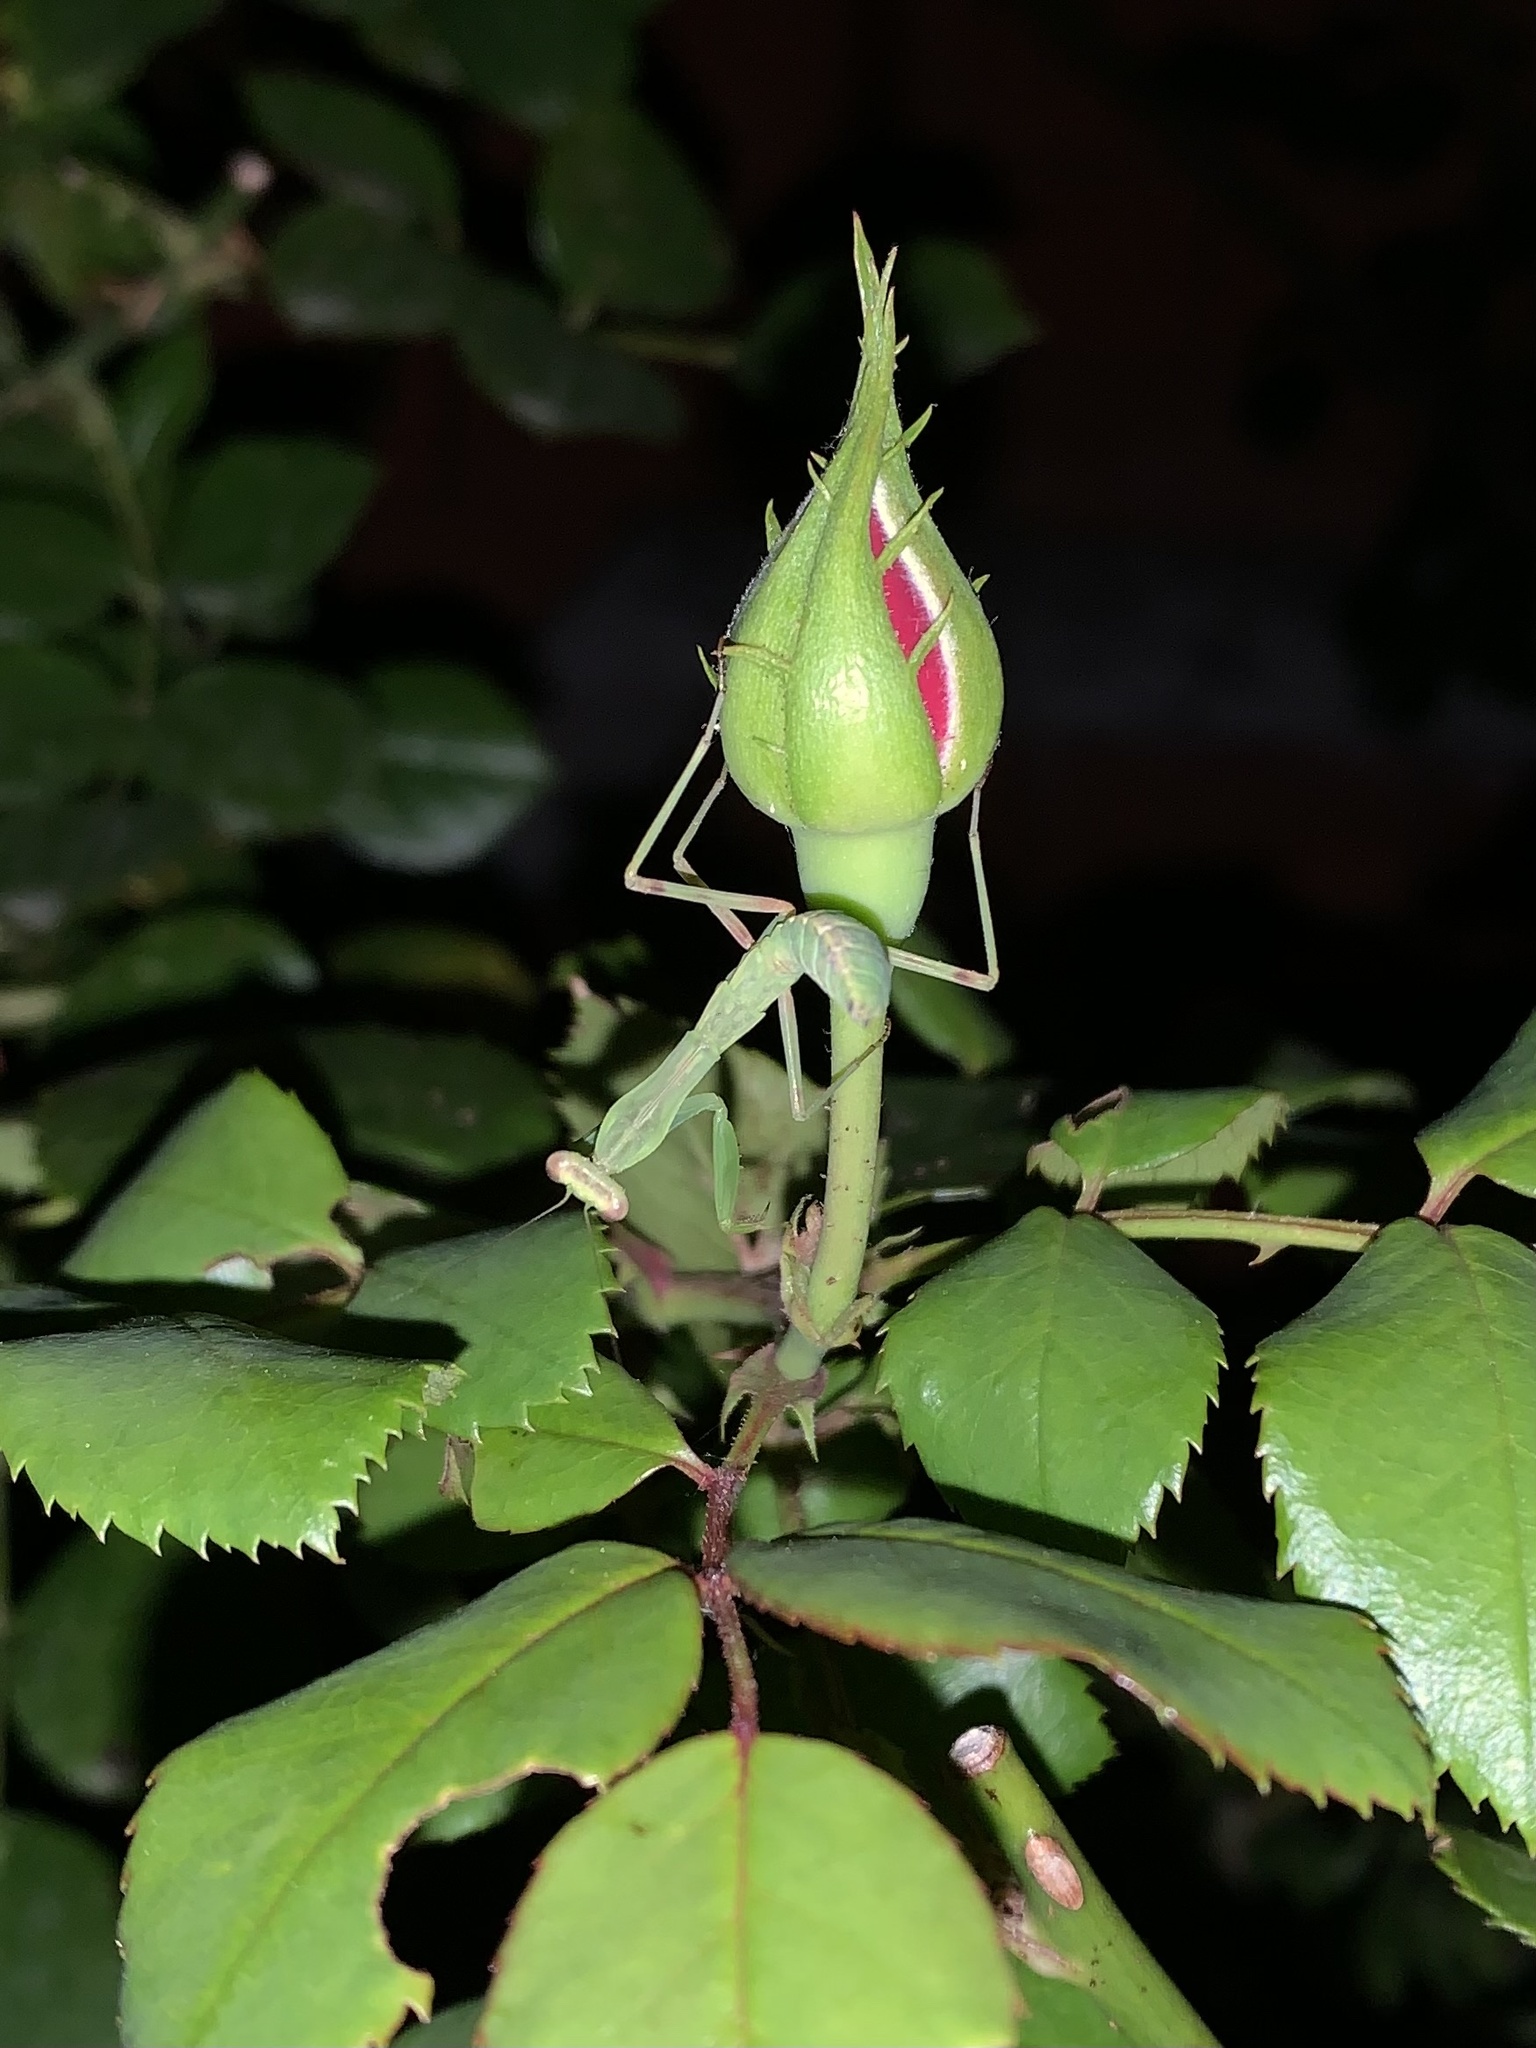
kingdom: Animalia
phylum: Arthropoda
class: Insecta
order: Mantodea
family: Mantidae
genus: Hierodula
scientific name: Hierodula transcaucasica
